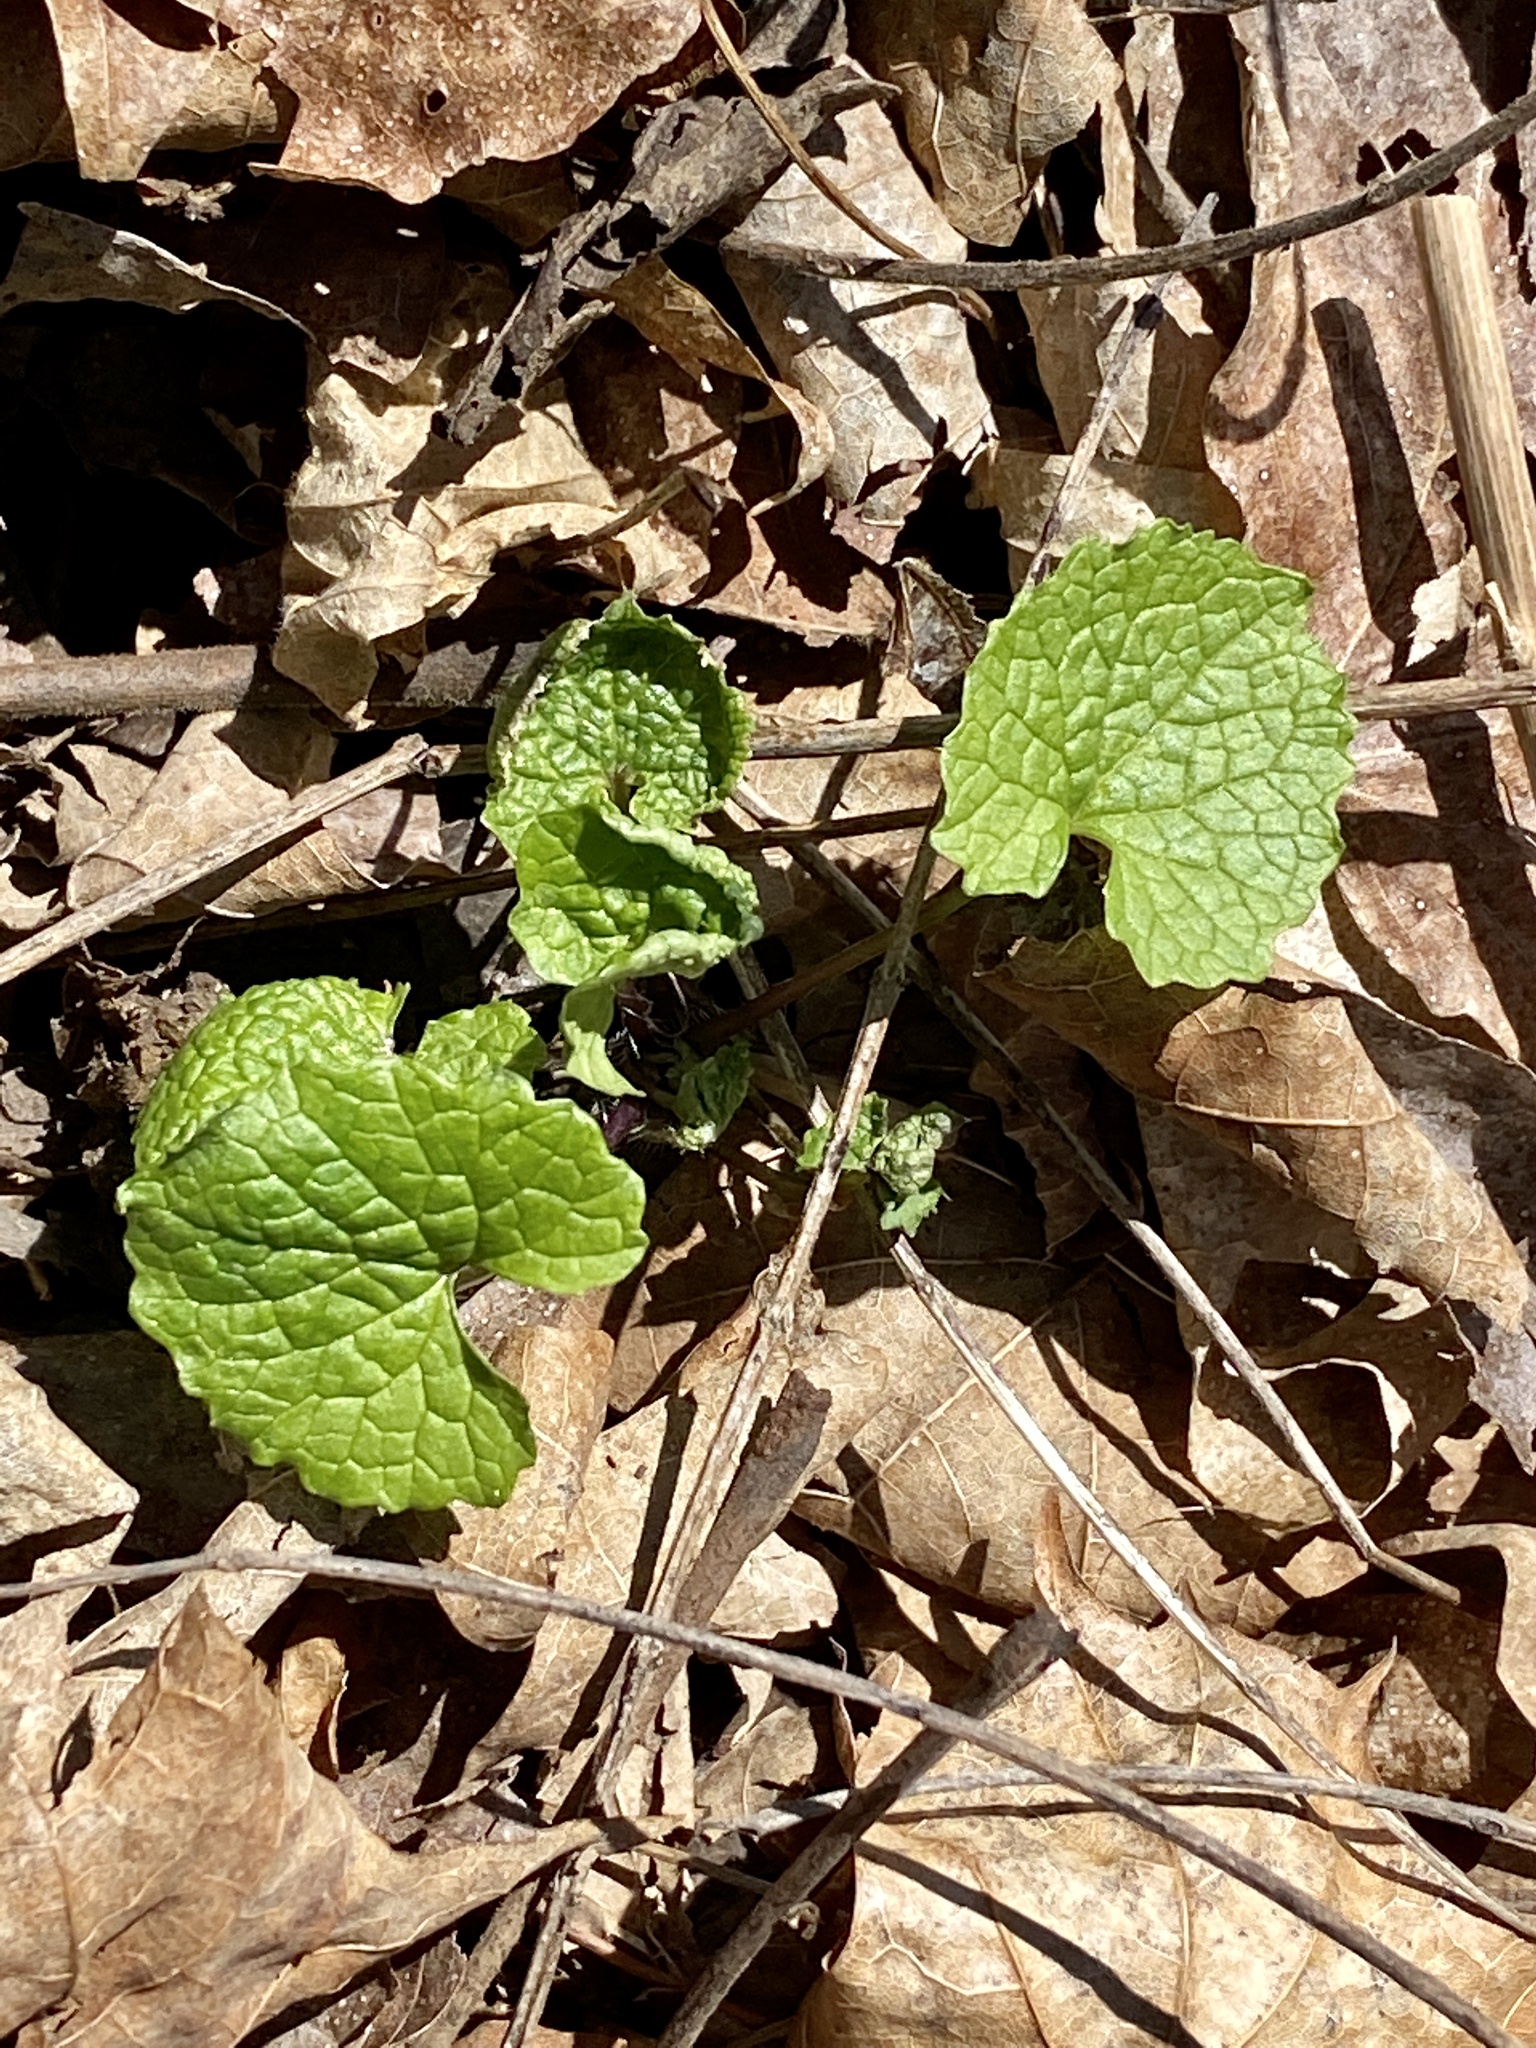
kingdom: Plantae
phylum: Tracheophyta
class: Magnoliopsida
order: Brassicales
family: Brassicaceae
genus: Alliaria
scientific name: Alliaria petiolata
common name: Garlic mustard
